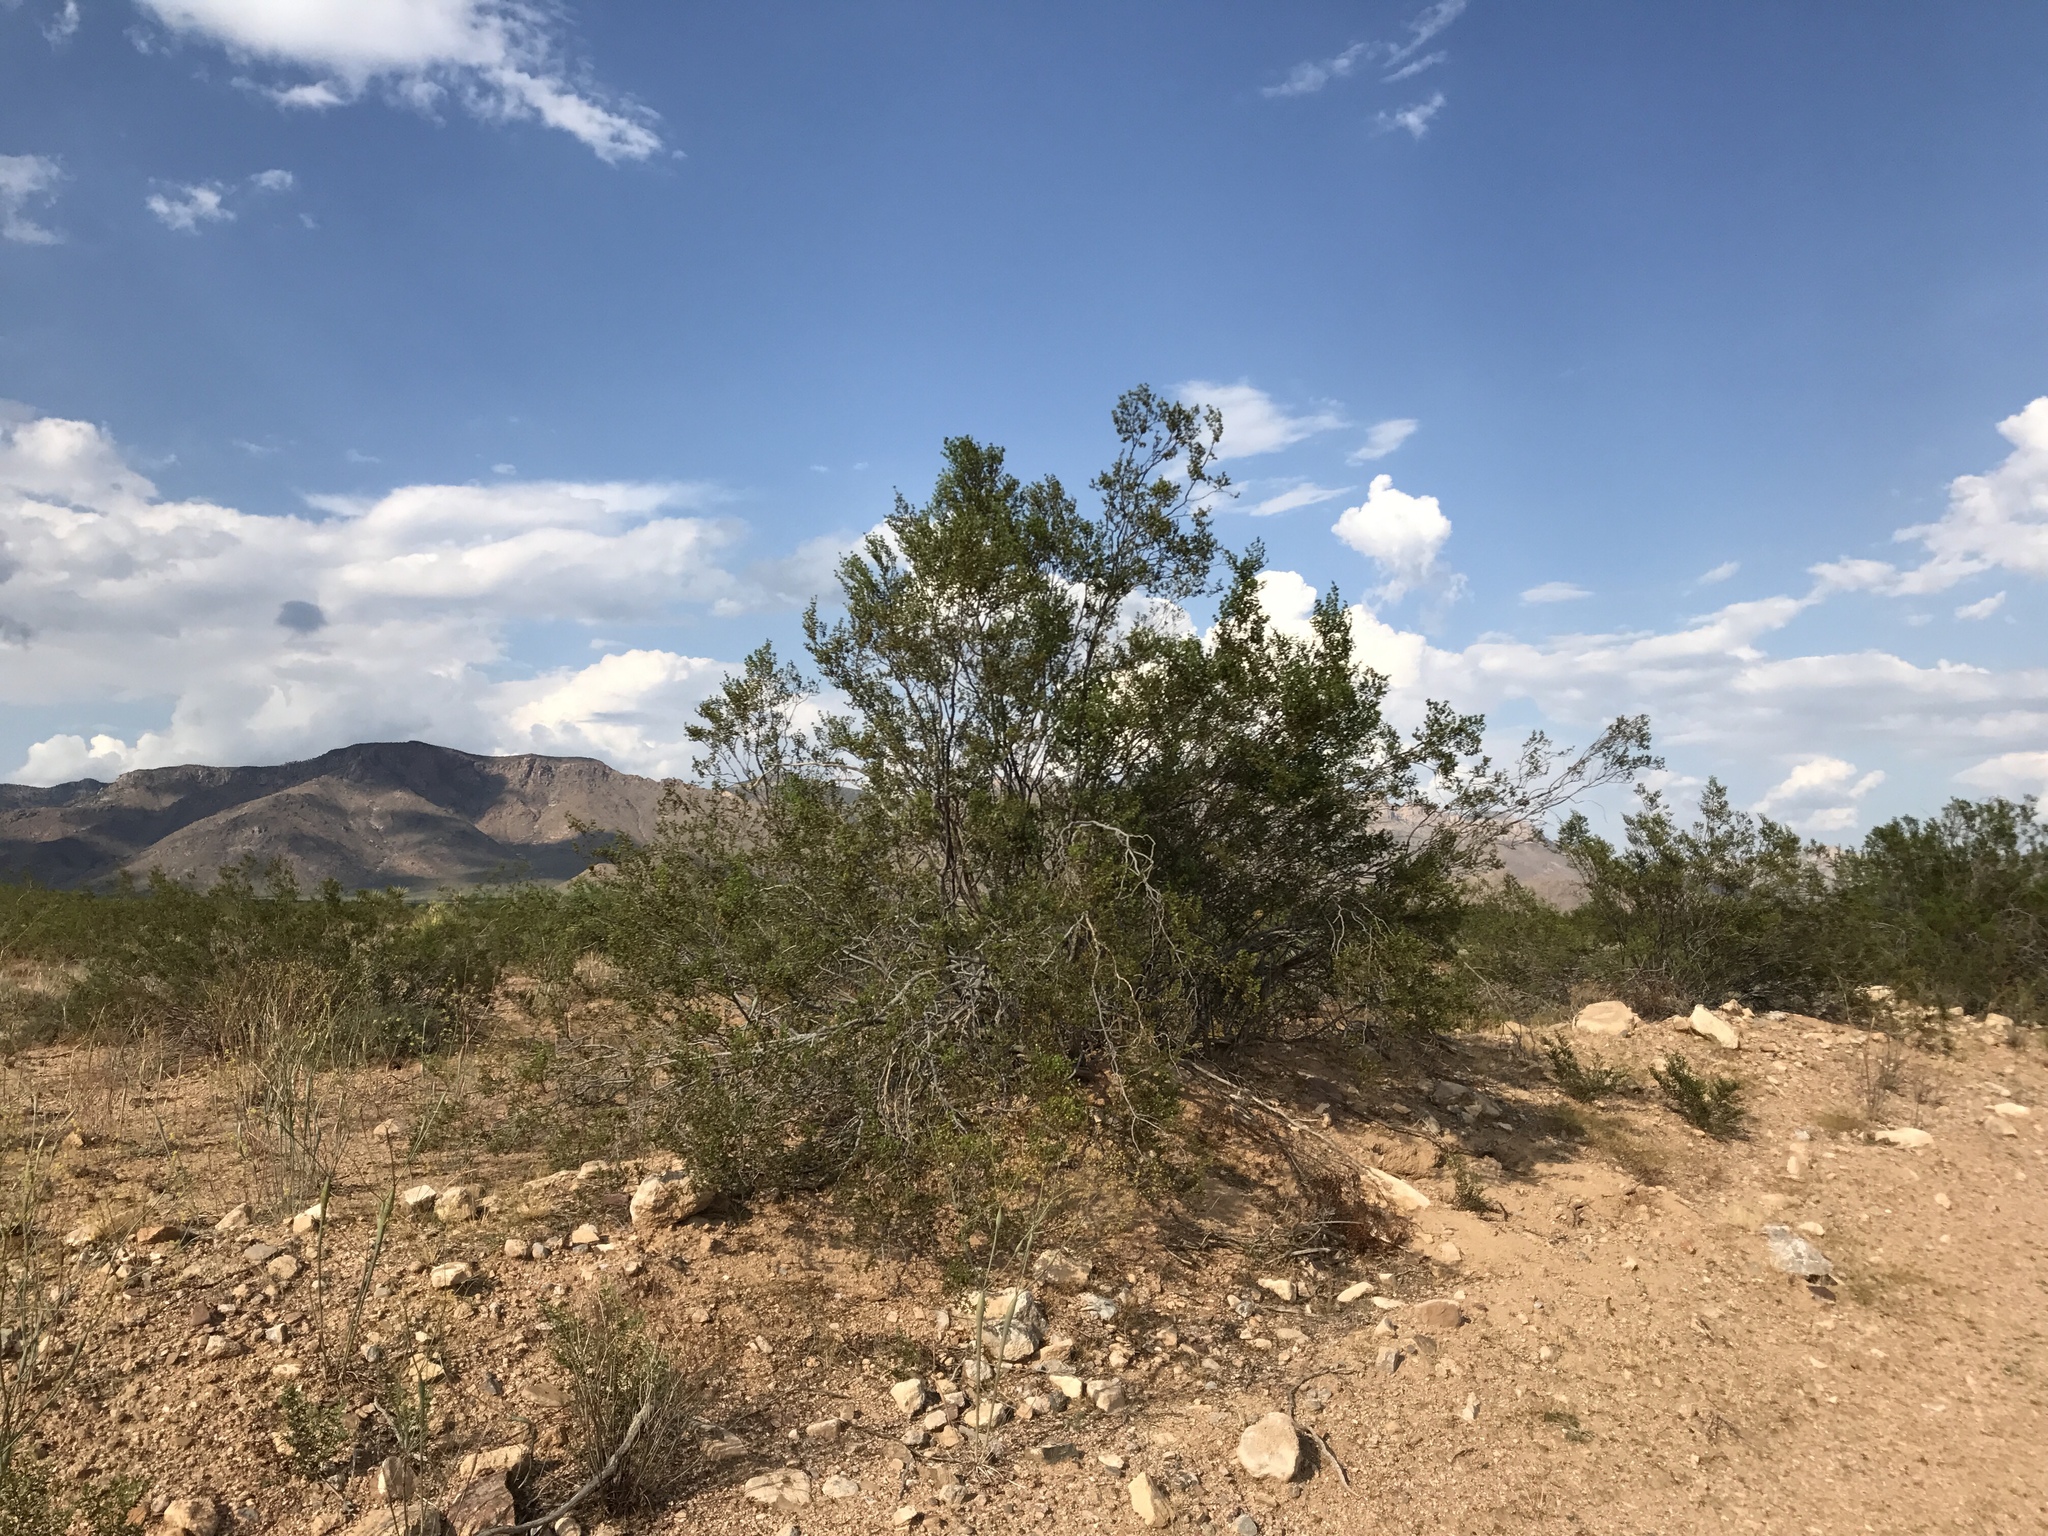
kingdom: Plantae
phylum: Tracheophyta
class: Magnoliopsida
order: Zygophyllales
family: Zygophyllaceae
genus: Larrea
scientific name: Larrea tridentata
